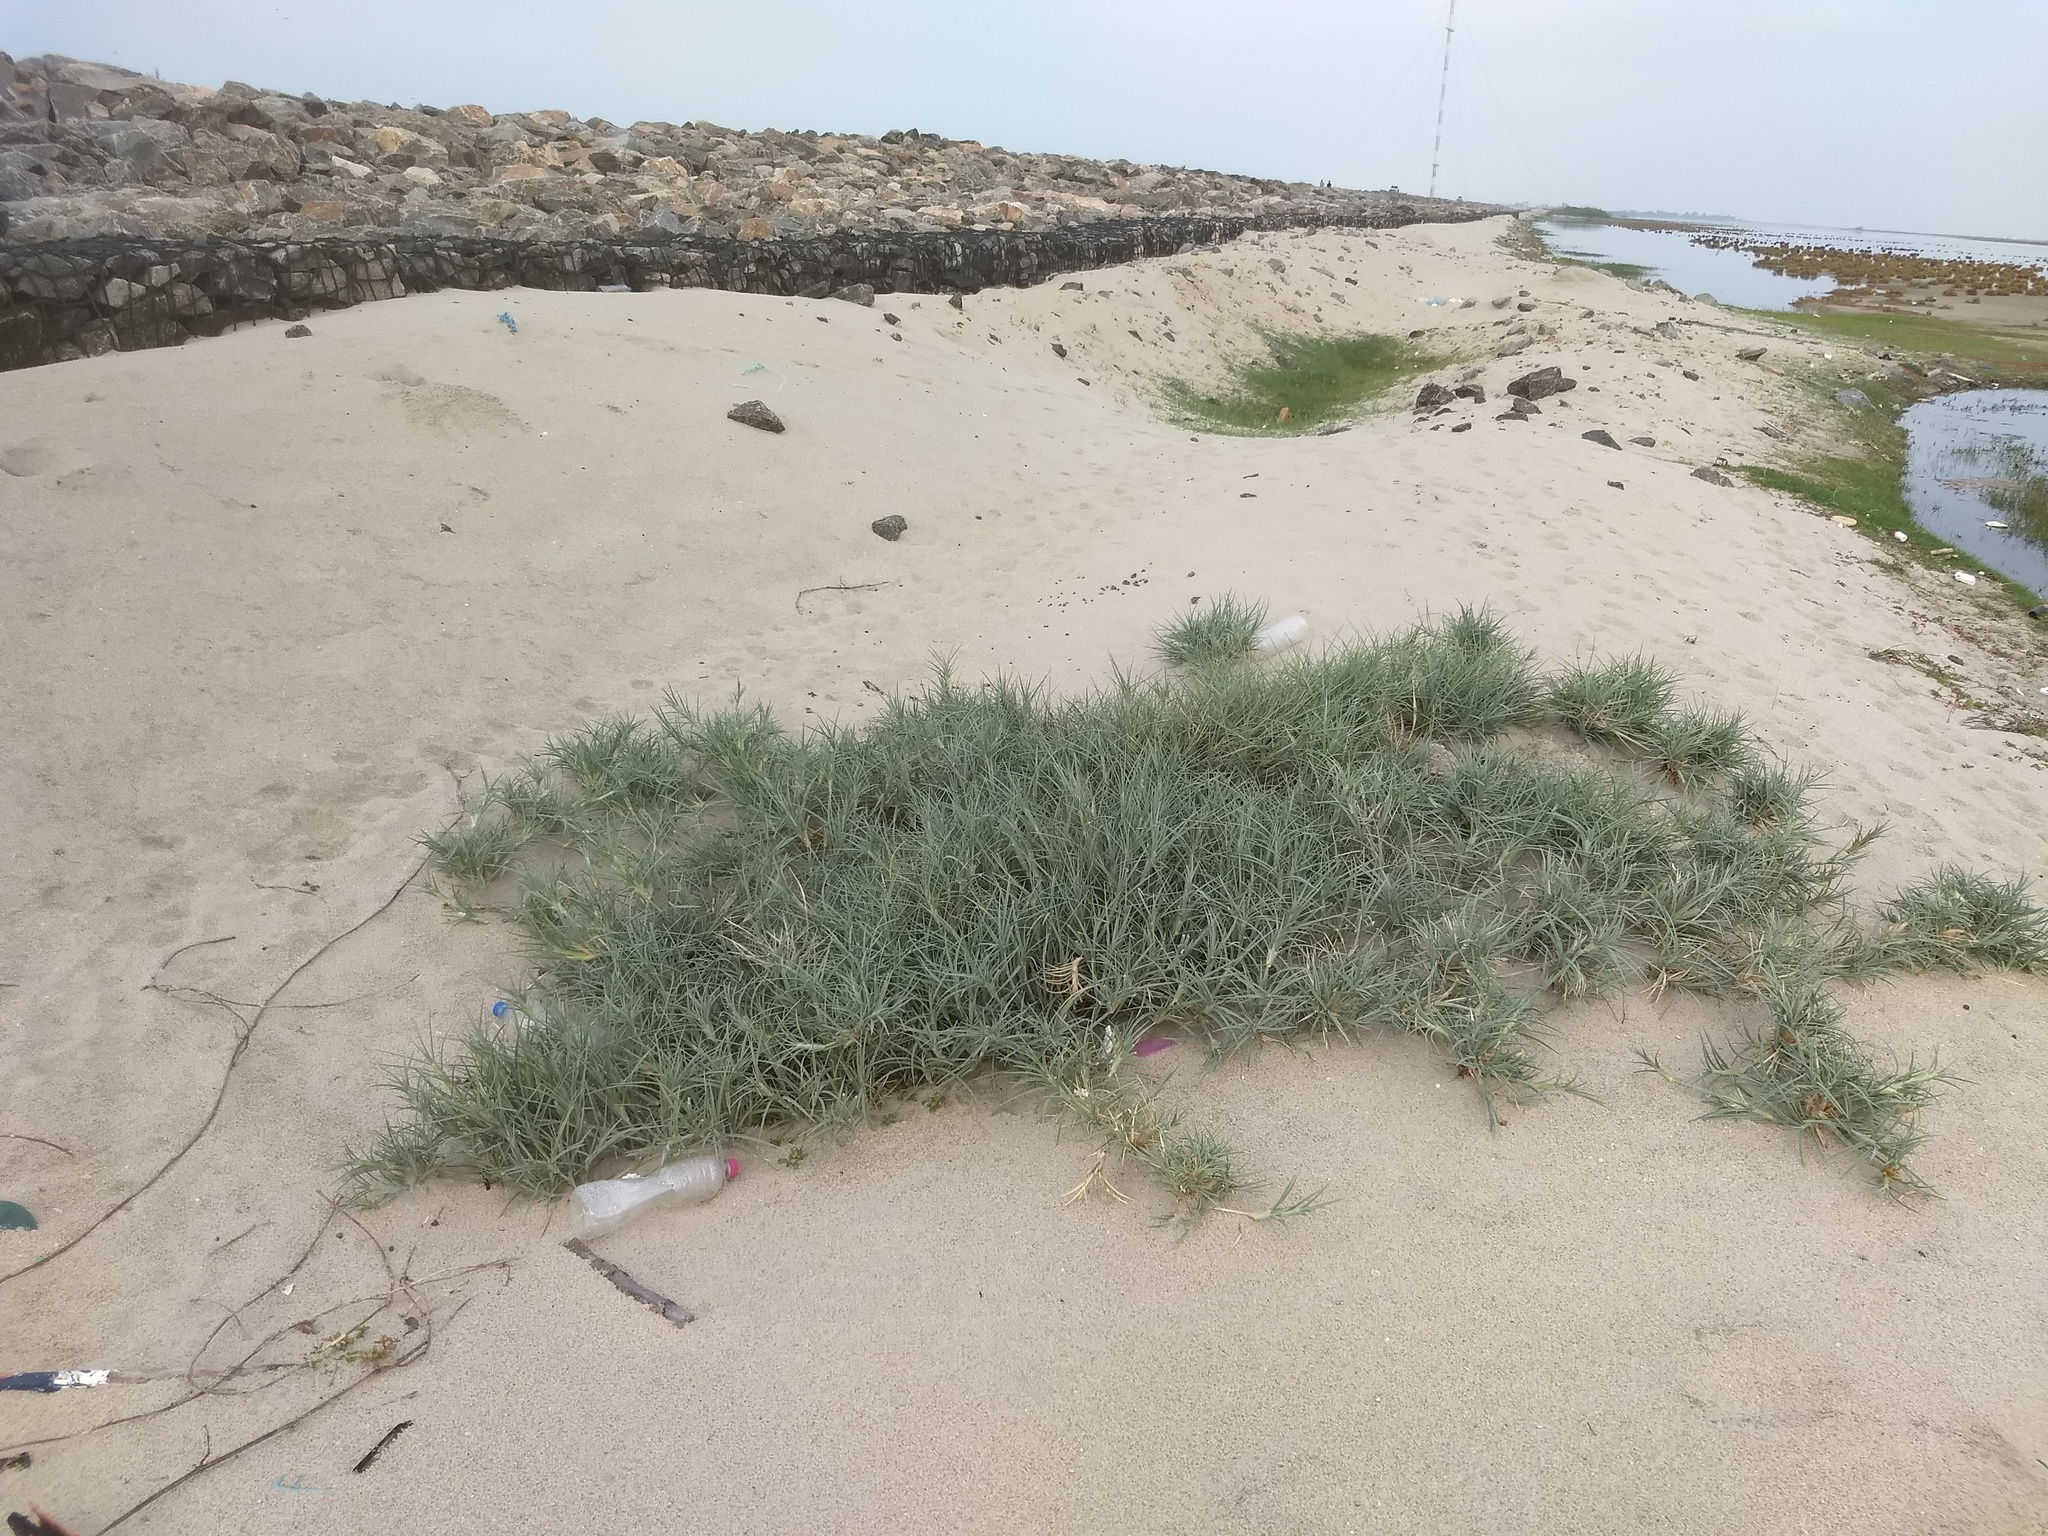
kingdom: Plantae
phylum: Tracheophyta
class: Liliopsida
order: Poales
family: Poaceae
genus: Spinifex
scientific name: Spinifex littoreus
